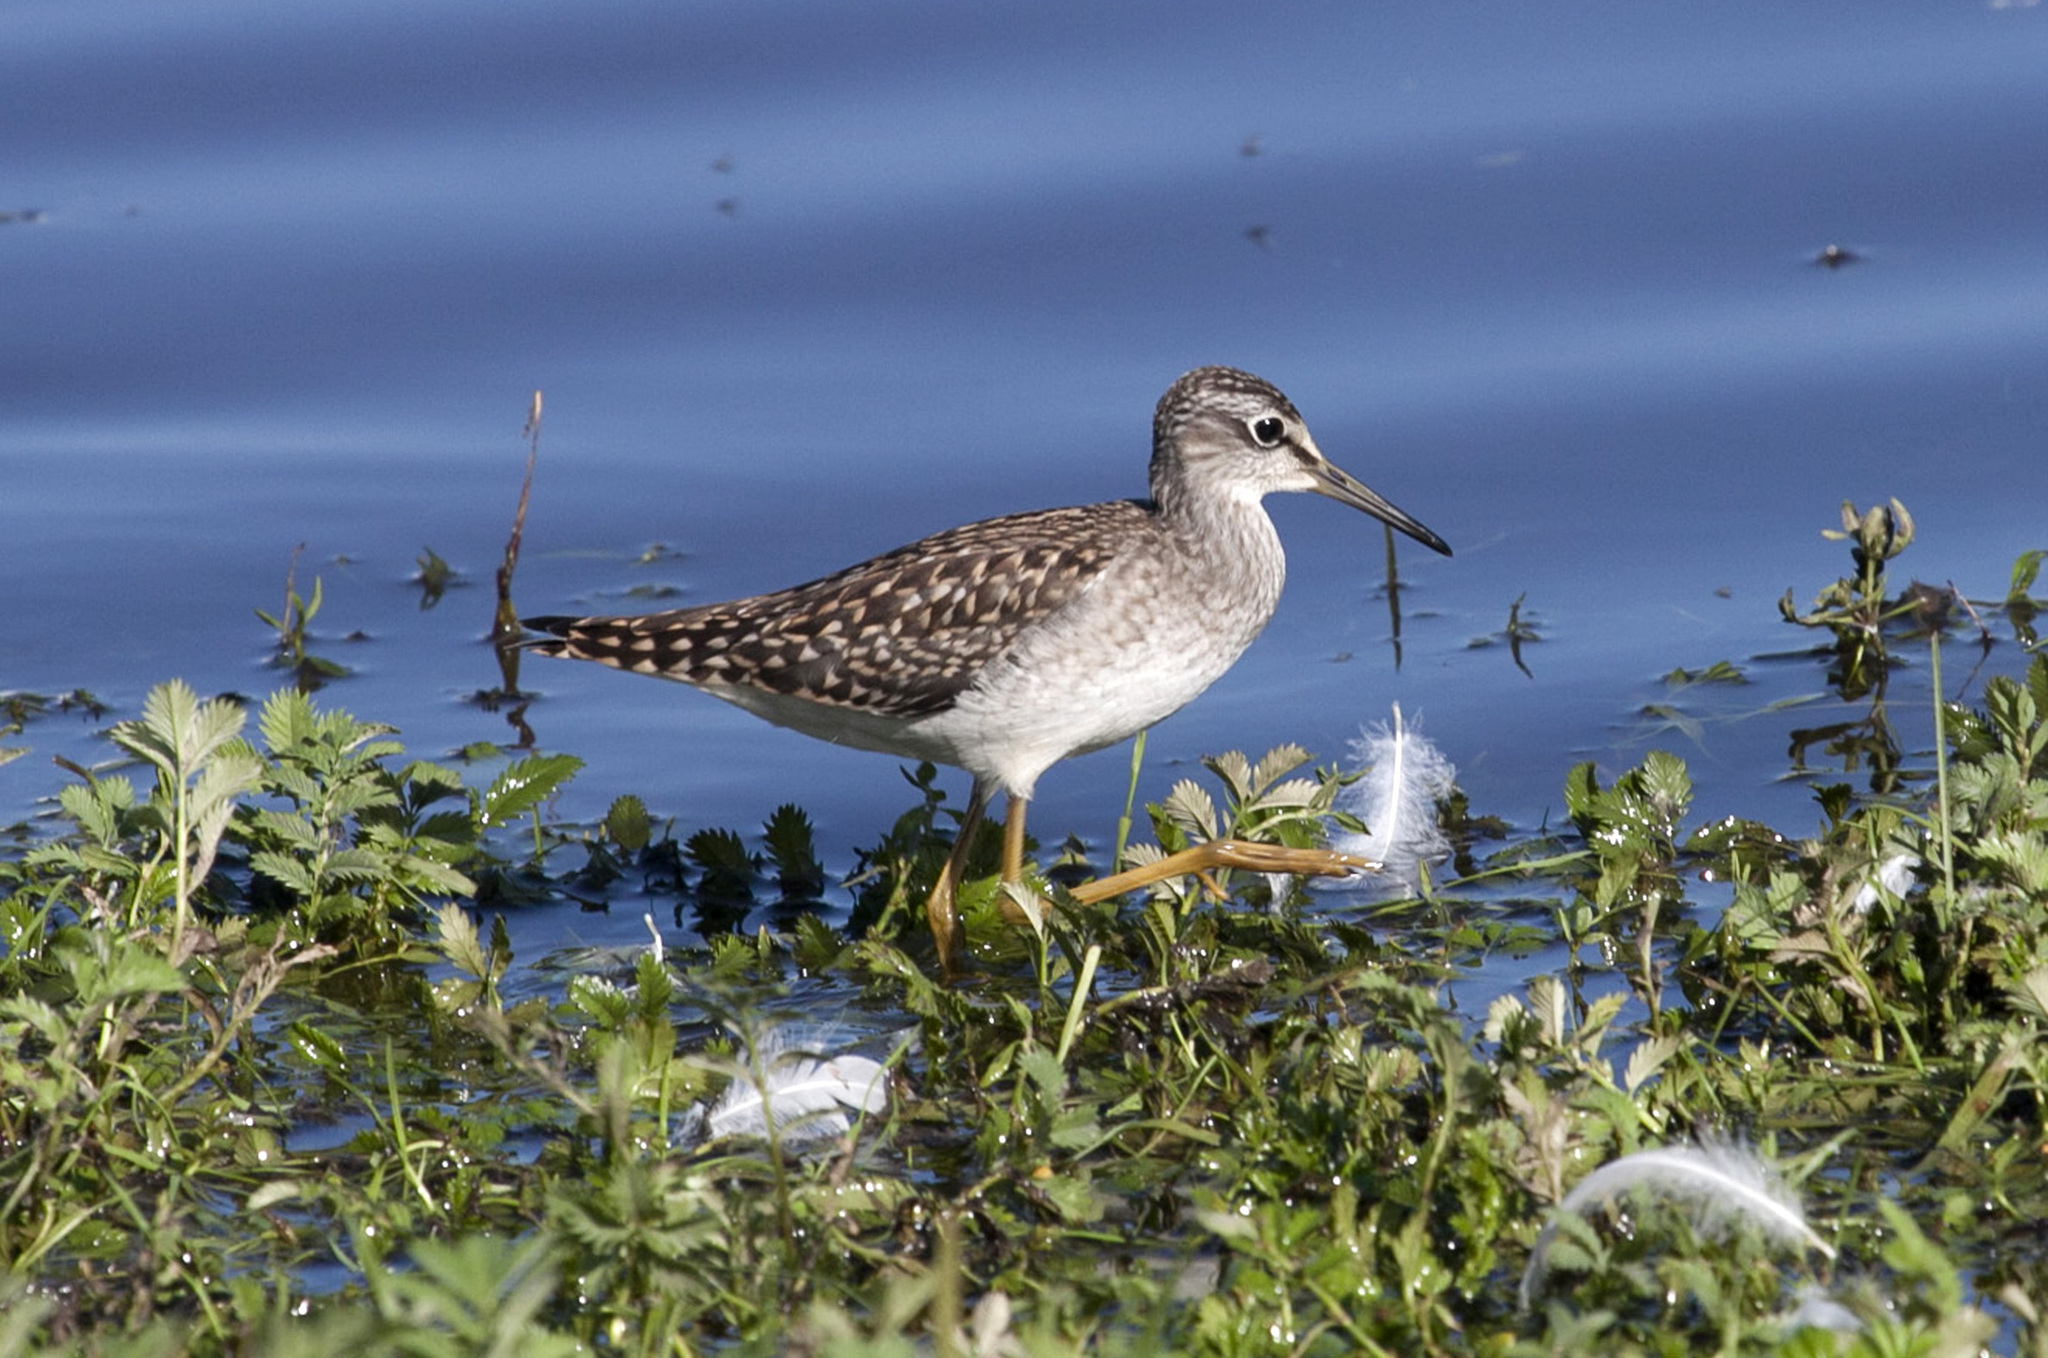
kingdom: Animalia
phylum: Chordata
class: Aves
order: Charadriiformes
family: Scolopacidae
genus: Tringa
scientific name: Tringa glareola
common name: Wood sandpiper
